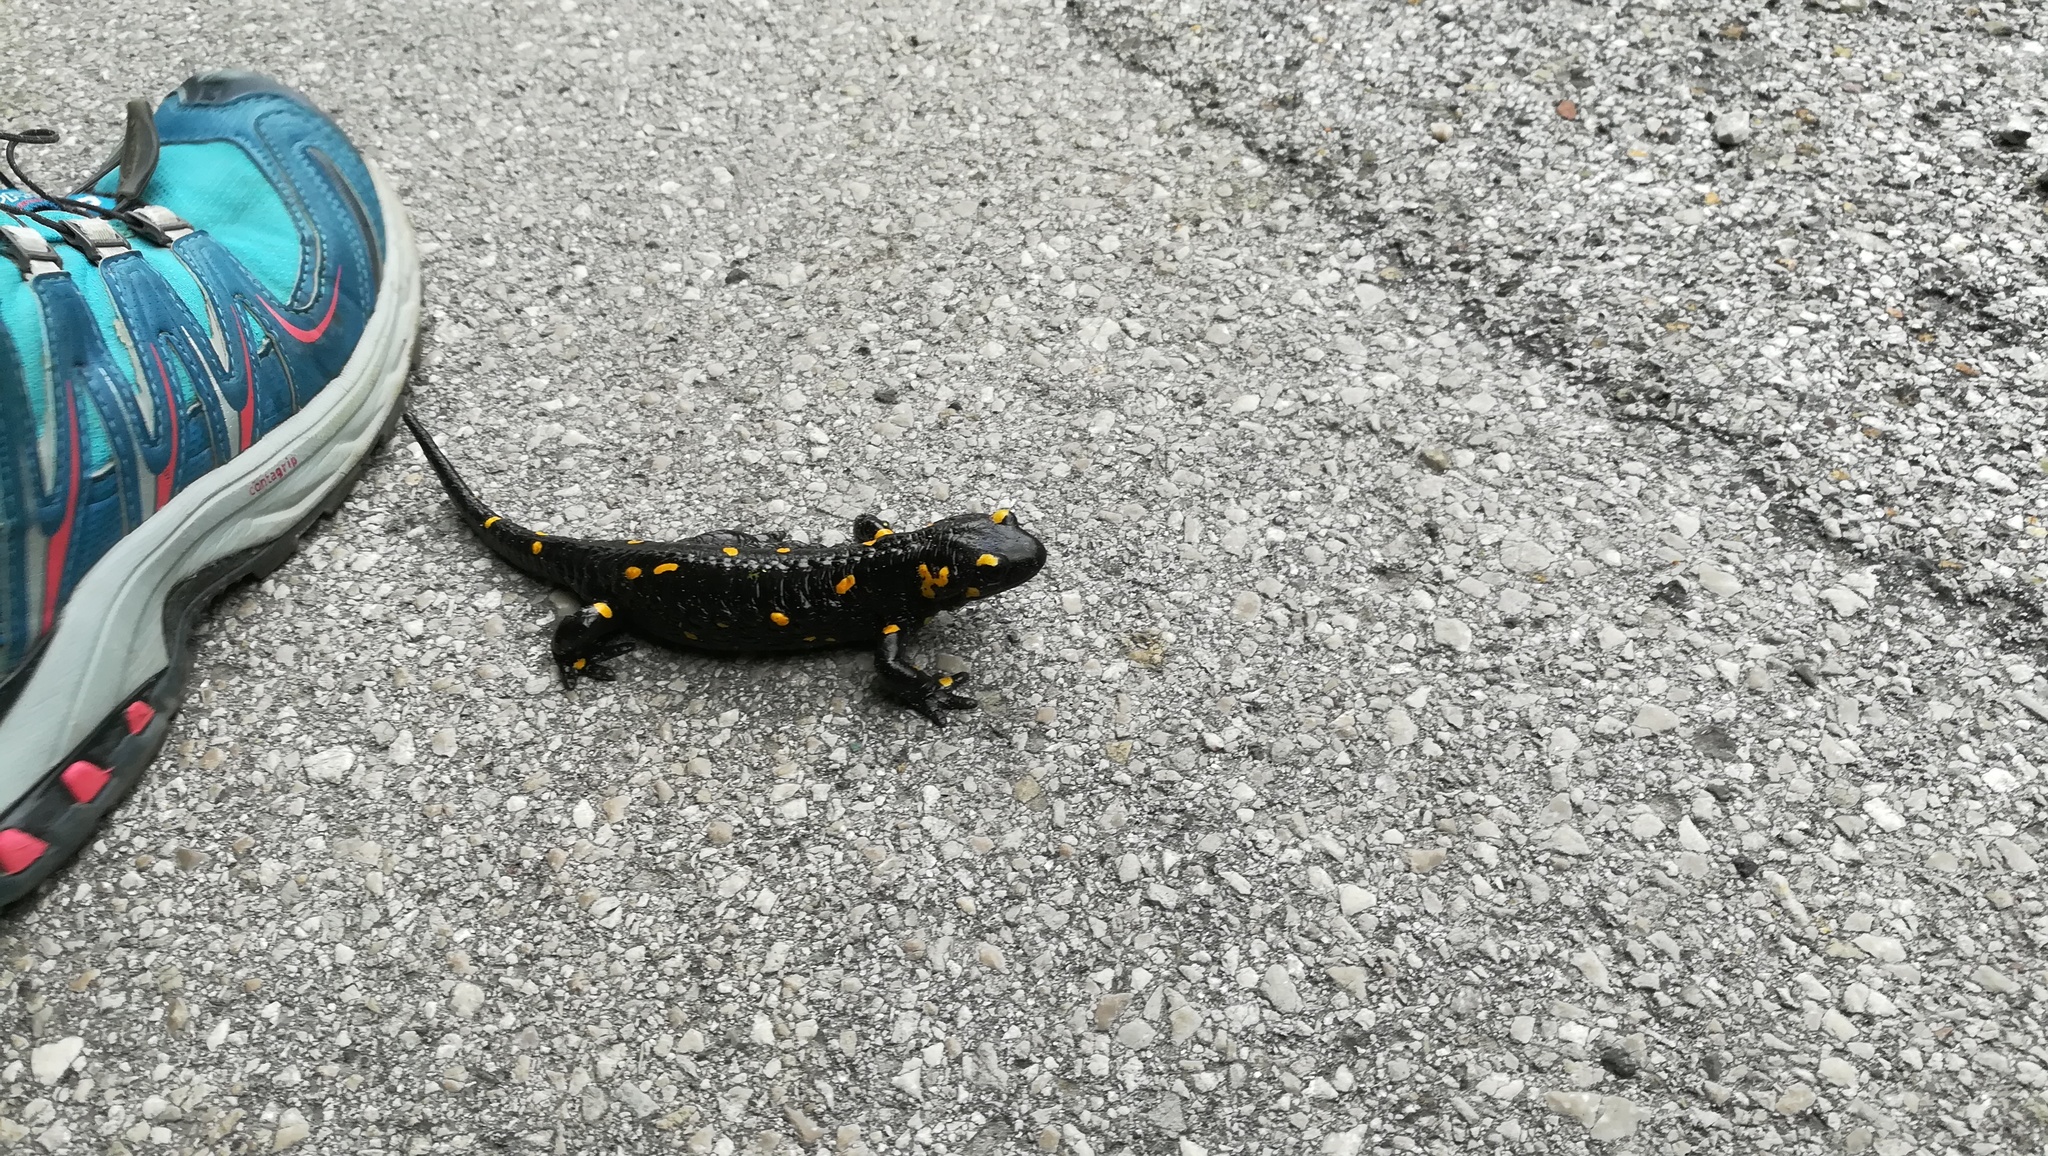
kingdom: Animalia
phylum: Chordata
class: Amphibia
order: Caudata
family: Salamandridae
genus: Salamandra
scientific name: Salamandra salamandra
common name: Fire salamander
